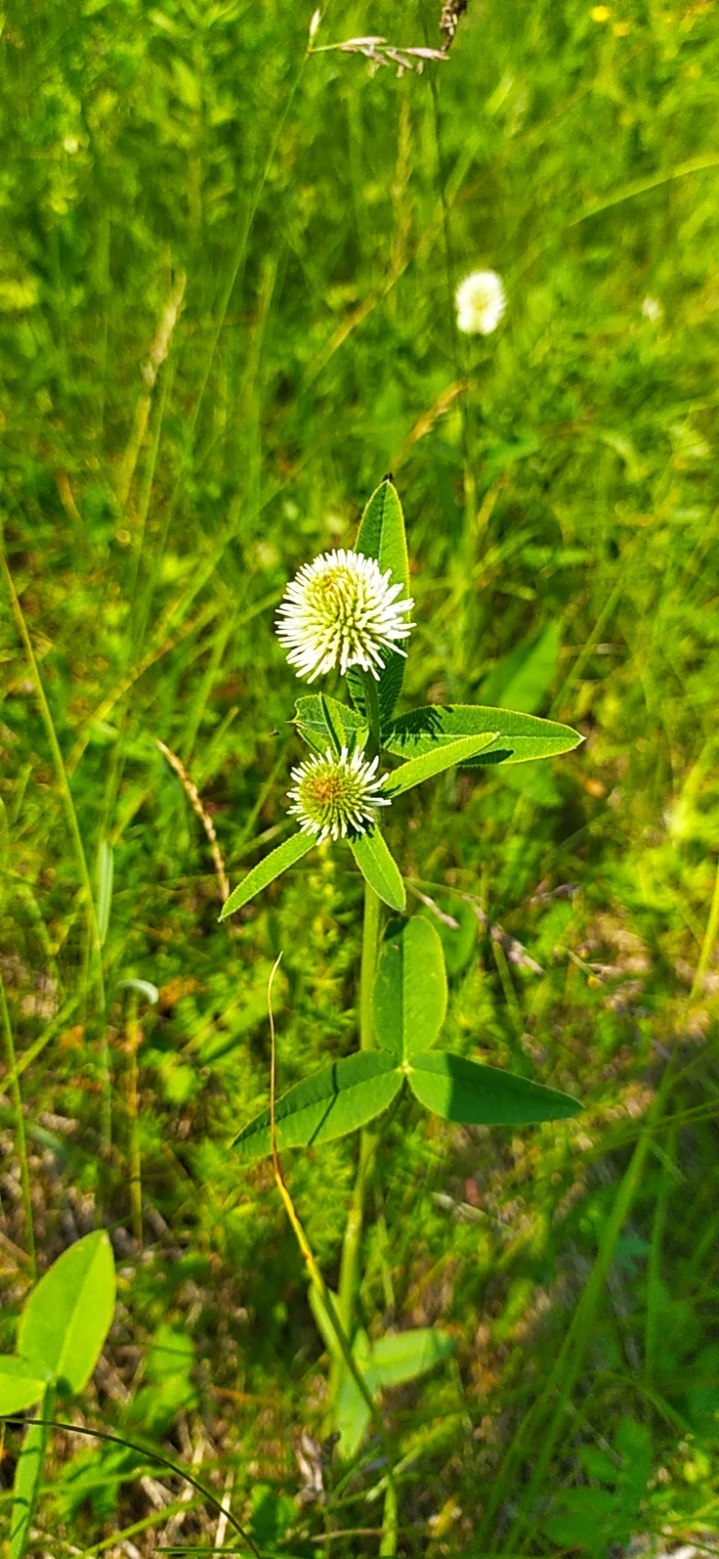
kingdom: Plantae
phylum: Tracheophyta
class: Magnoliopsida
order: Fabales
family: Fabaceae
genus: Trifolium
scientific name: Trifolium montanum
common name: Mountain clover
